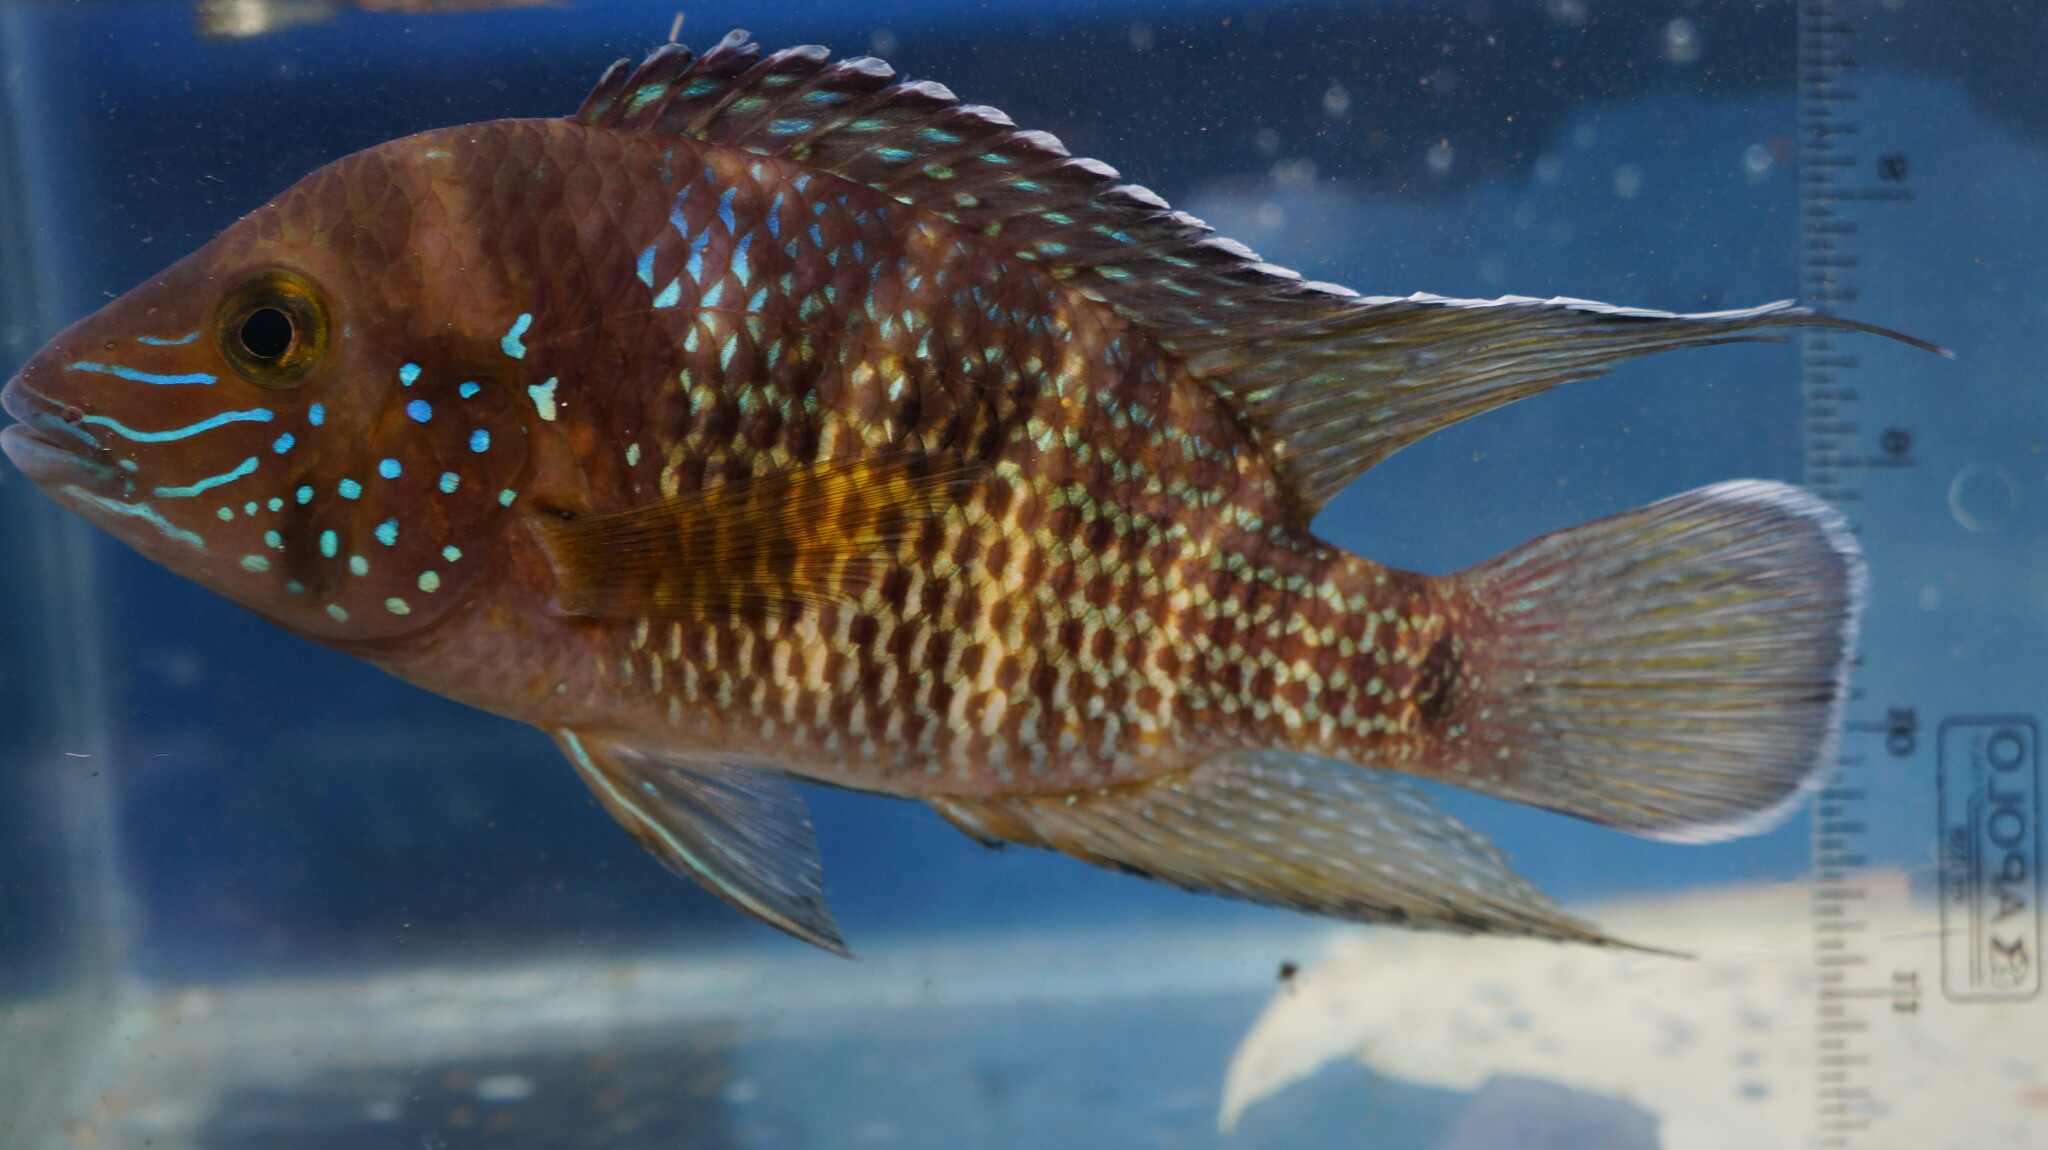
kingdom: Animalia
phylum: Chordata
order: Perciformes
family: Cichlidae
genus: Andinoacara
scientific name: Andinoacara blombergi
